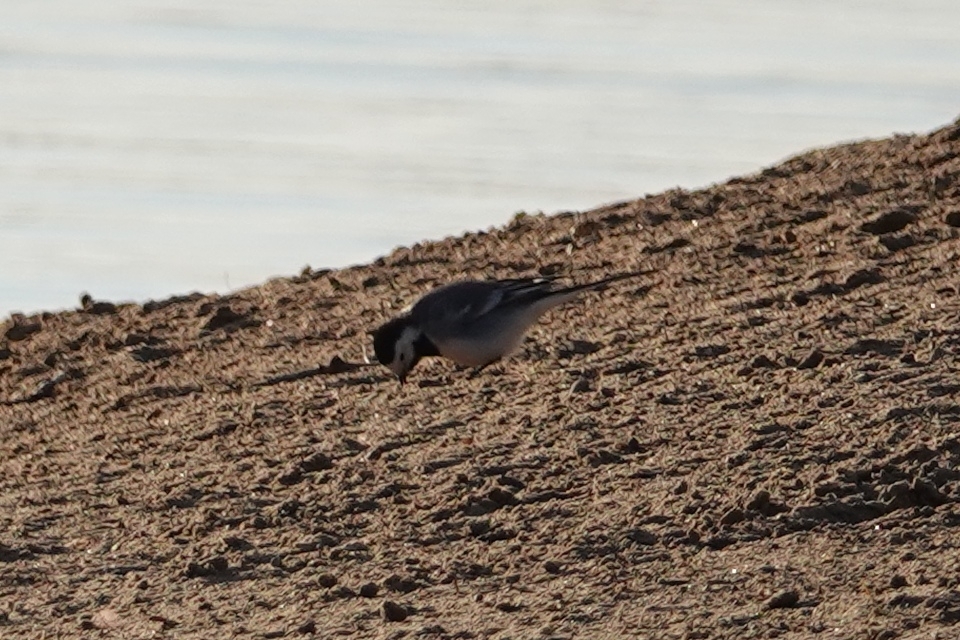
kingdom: Animalia
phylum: Chordata
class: Aves
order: Passeriformes
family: Motacillidae
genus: Motacilla
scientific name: Motacilla alba
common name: White wagtail
